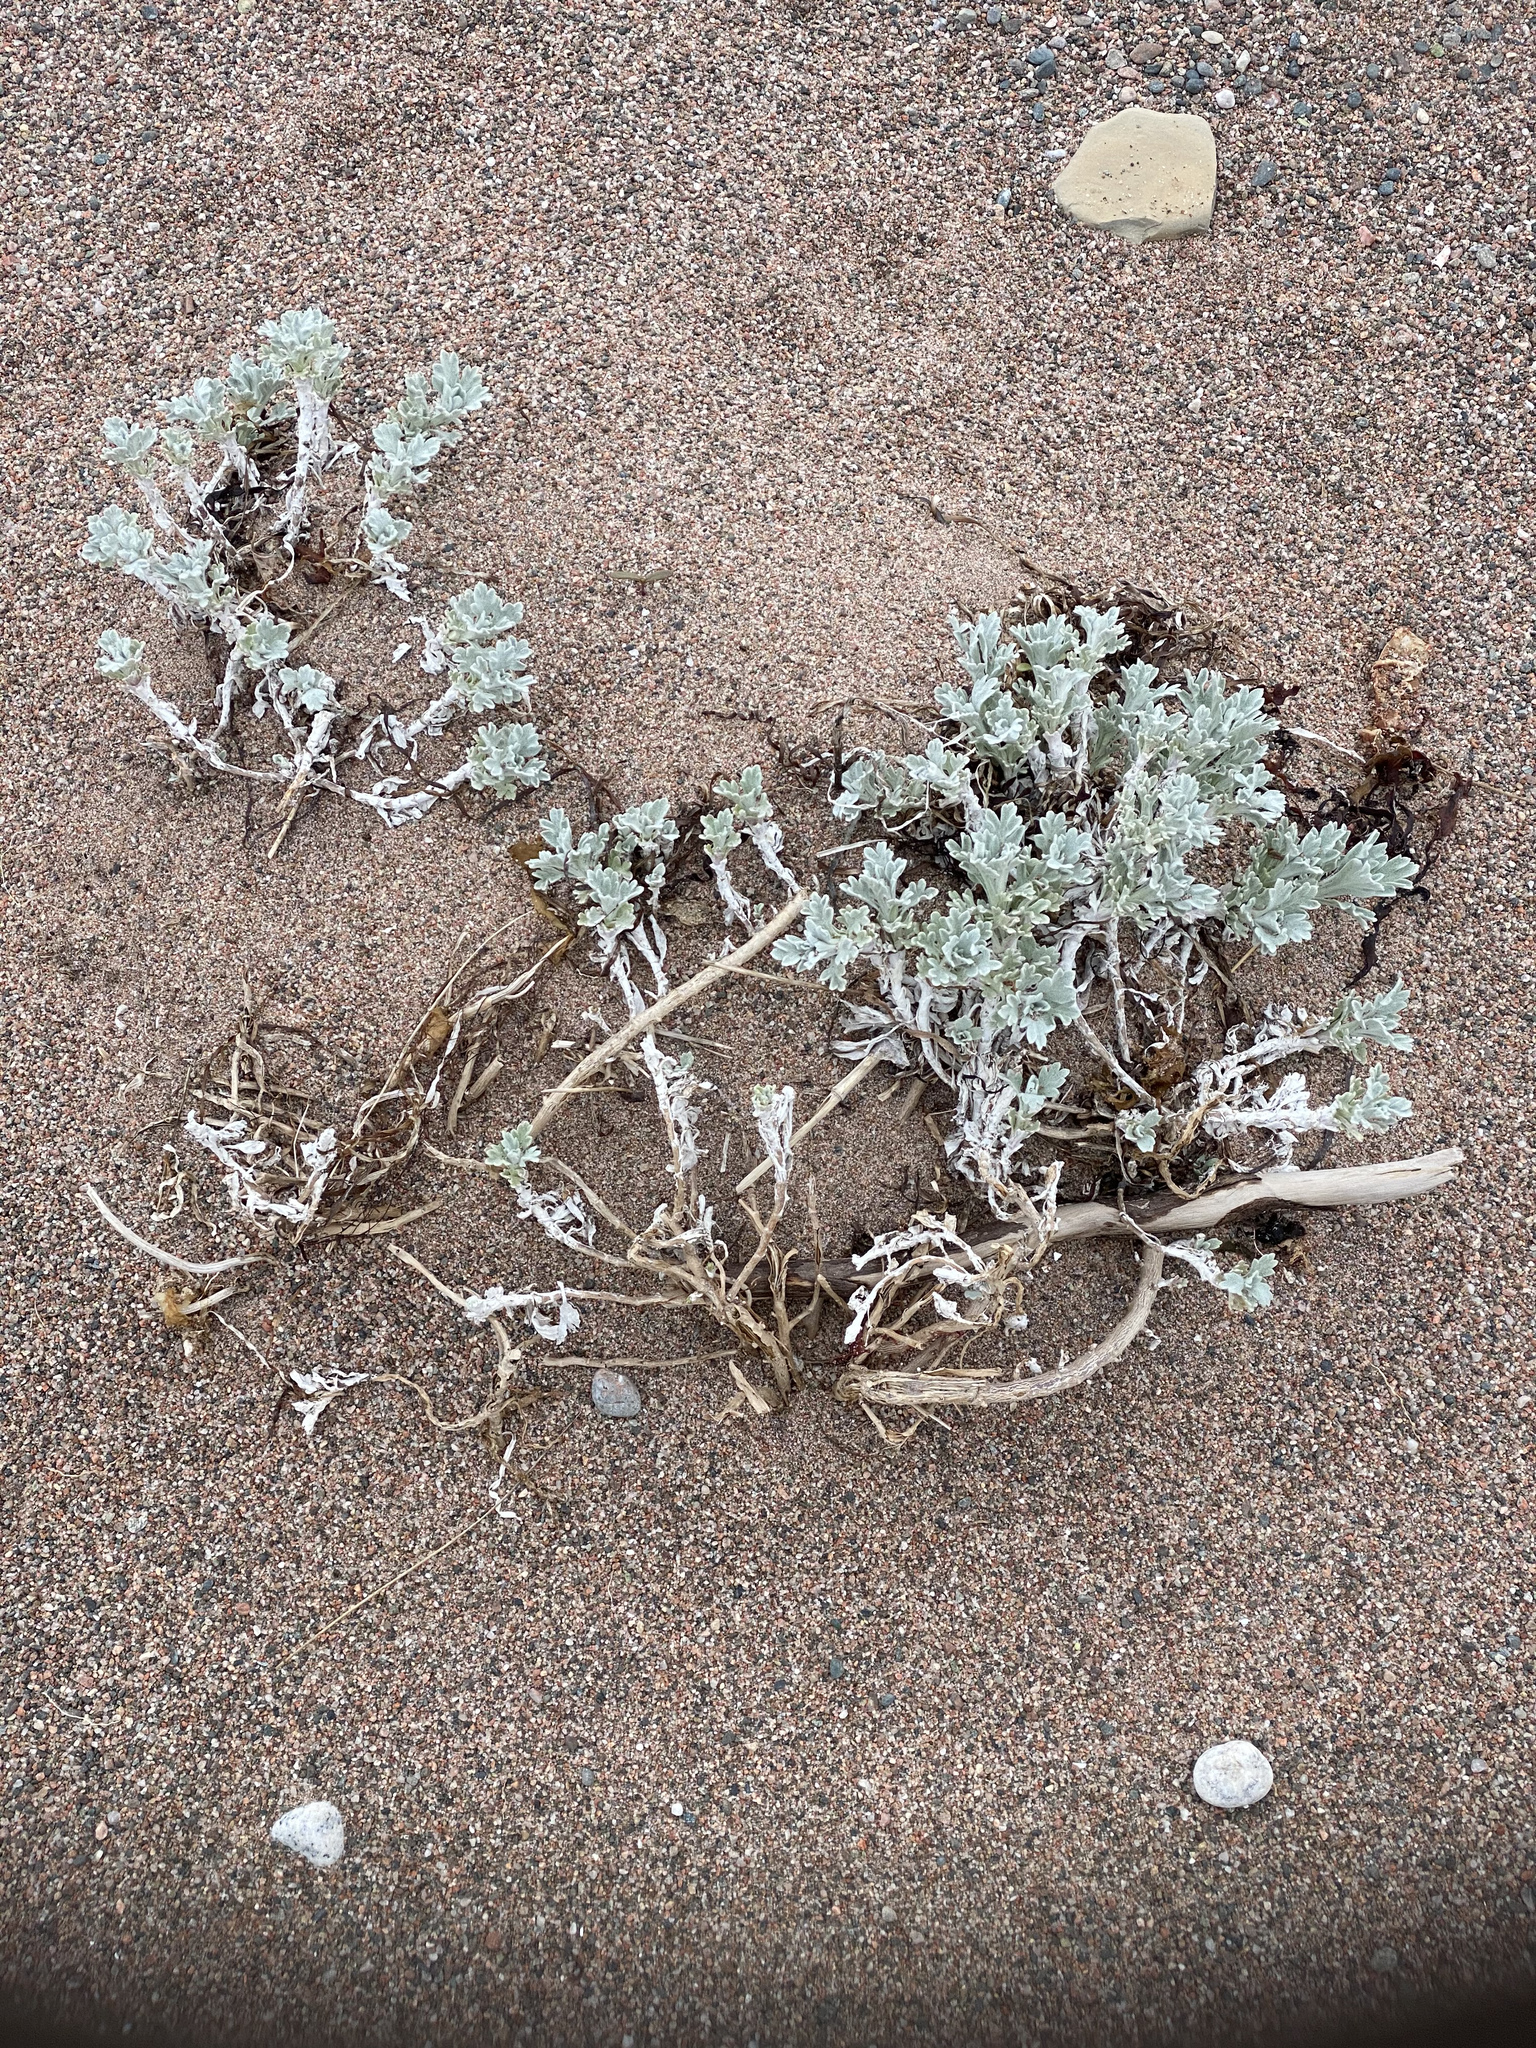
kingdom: Plantae
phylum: Tracheophyta
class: Magnoliopsida
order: Asterales
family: Asteraceae
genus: Artemisia
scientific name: Artemisia stelleriana
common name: Beach wormwood
